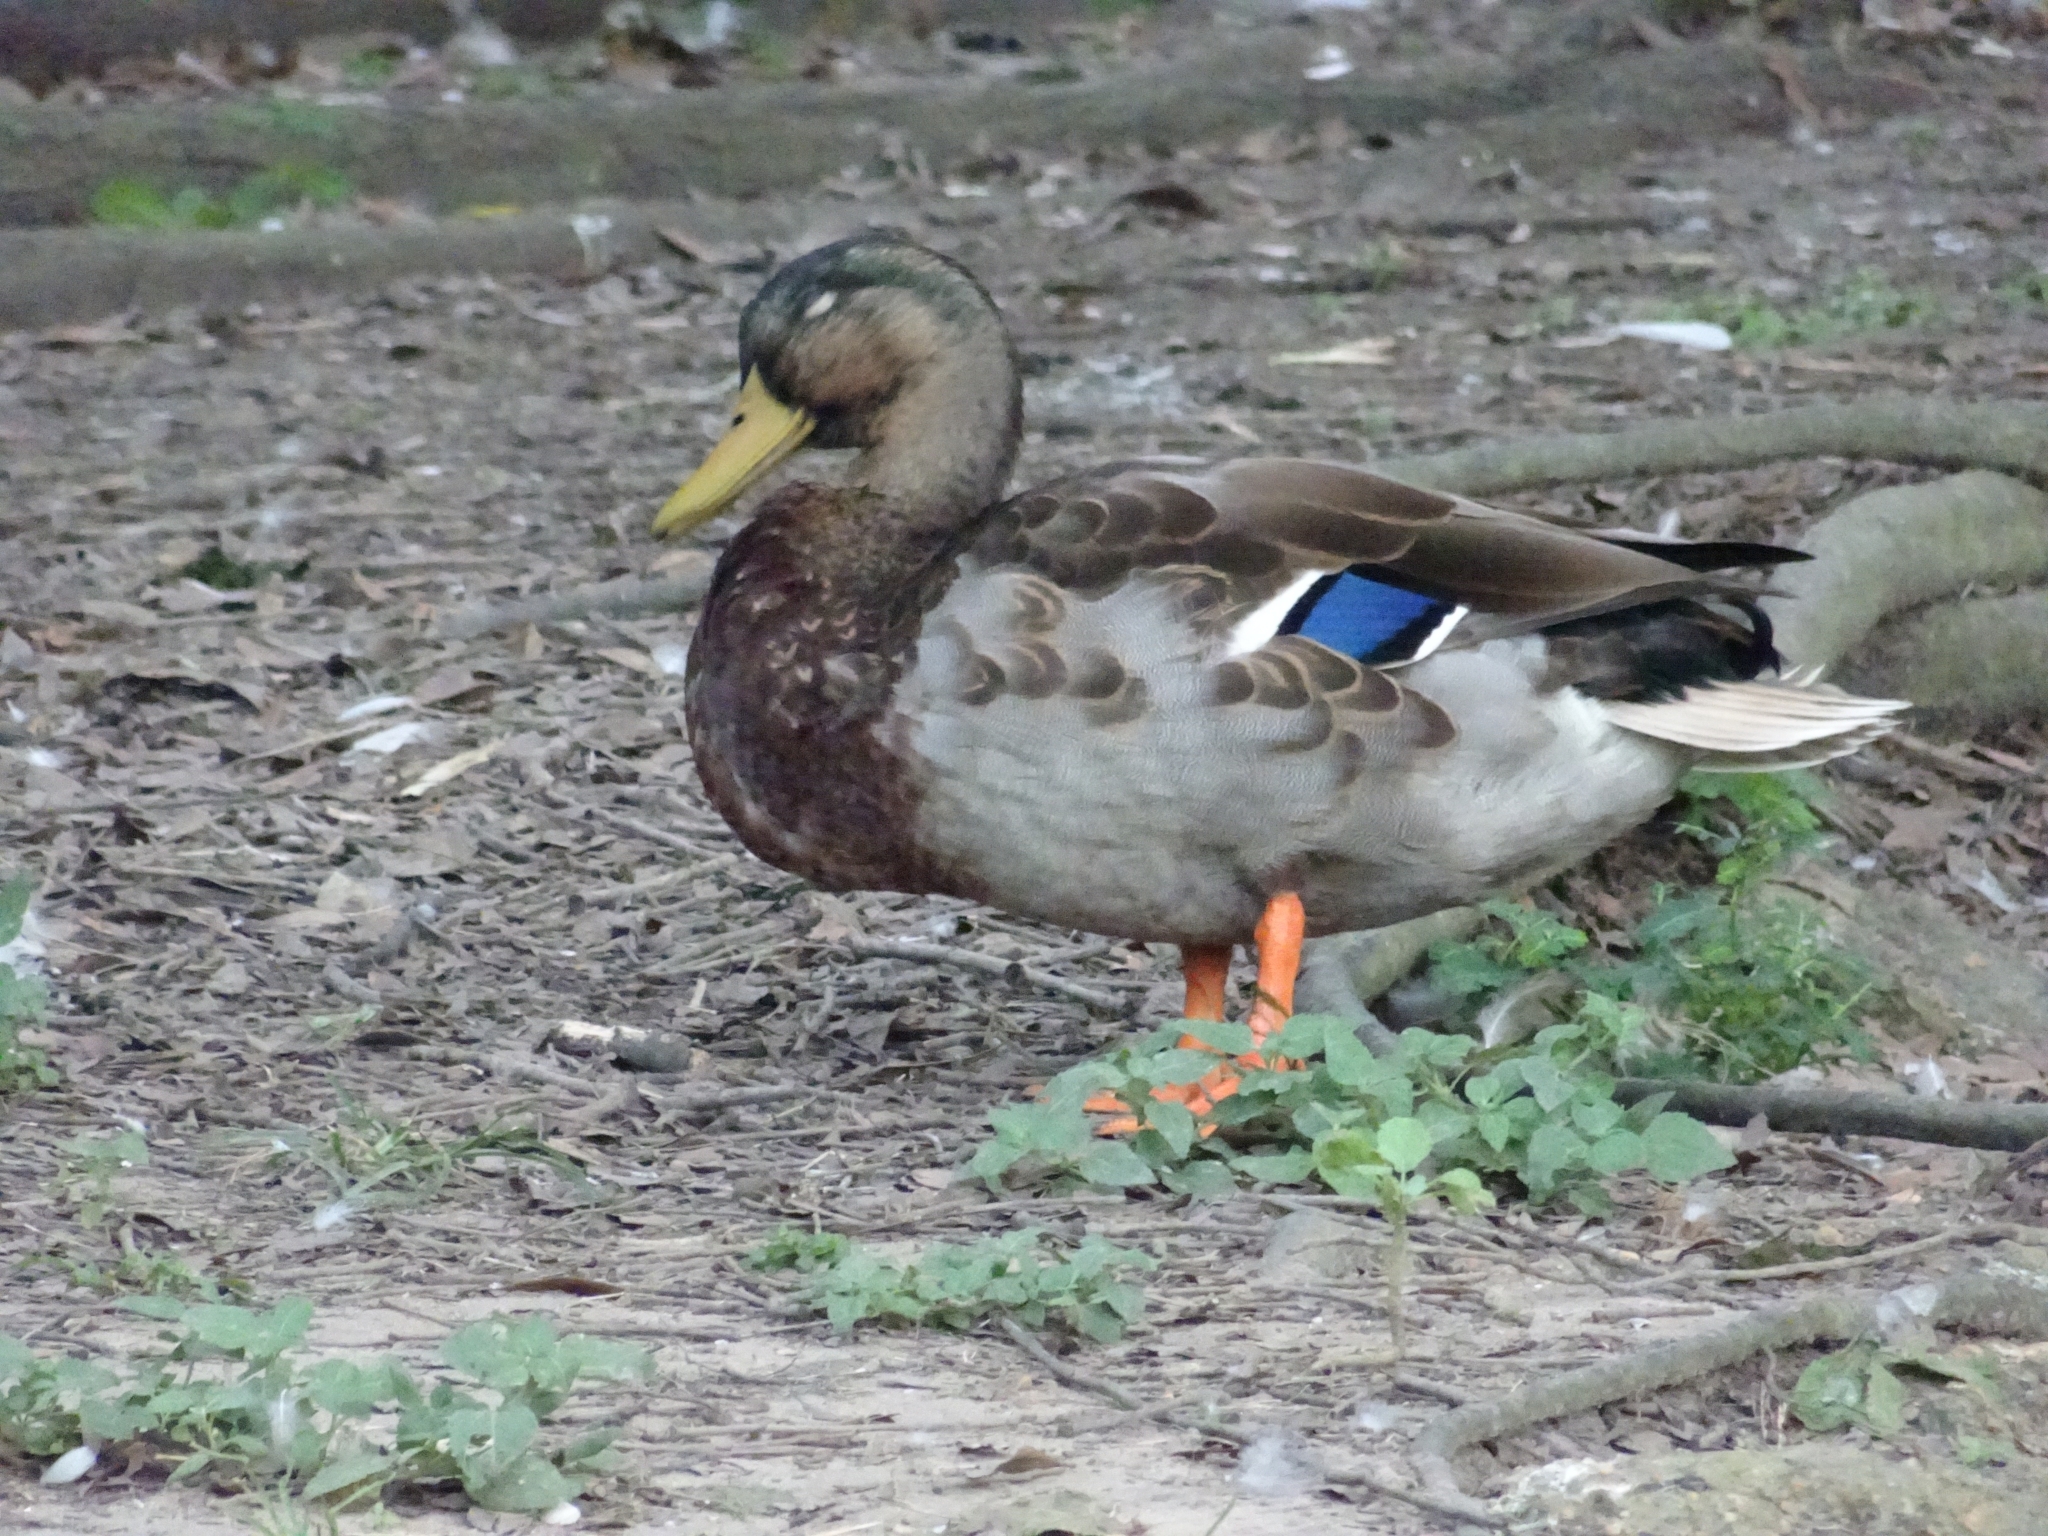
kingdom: Animalia
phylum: Chordata
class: Aves
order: Anseriformes
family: Anatidae
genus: Anas
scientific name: Anas platyrhynchos
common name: Mallard
